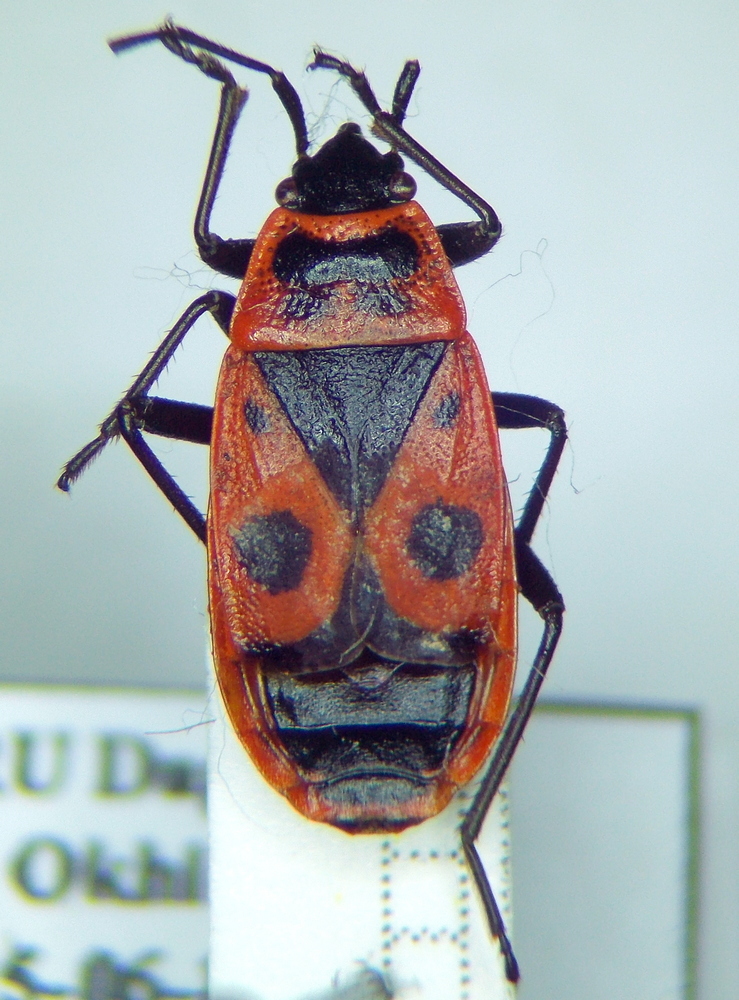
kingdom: Animalia
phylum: Arthropoda
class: Insecta
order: Hemiptera
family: Pyrrhocoridae
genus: Pyrrhocoris
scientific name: Pyrrhocoris apterus
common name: Firebug
